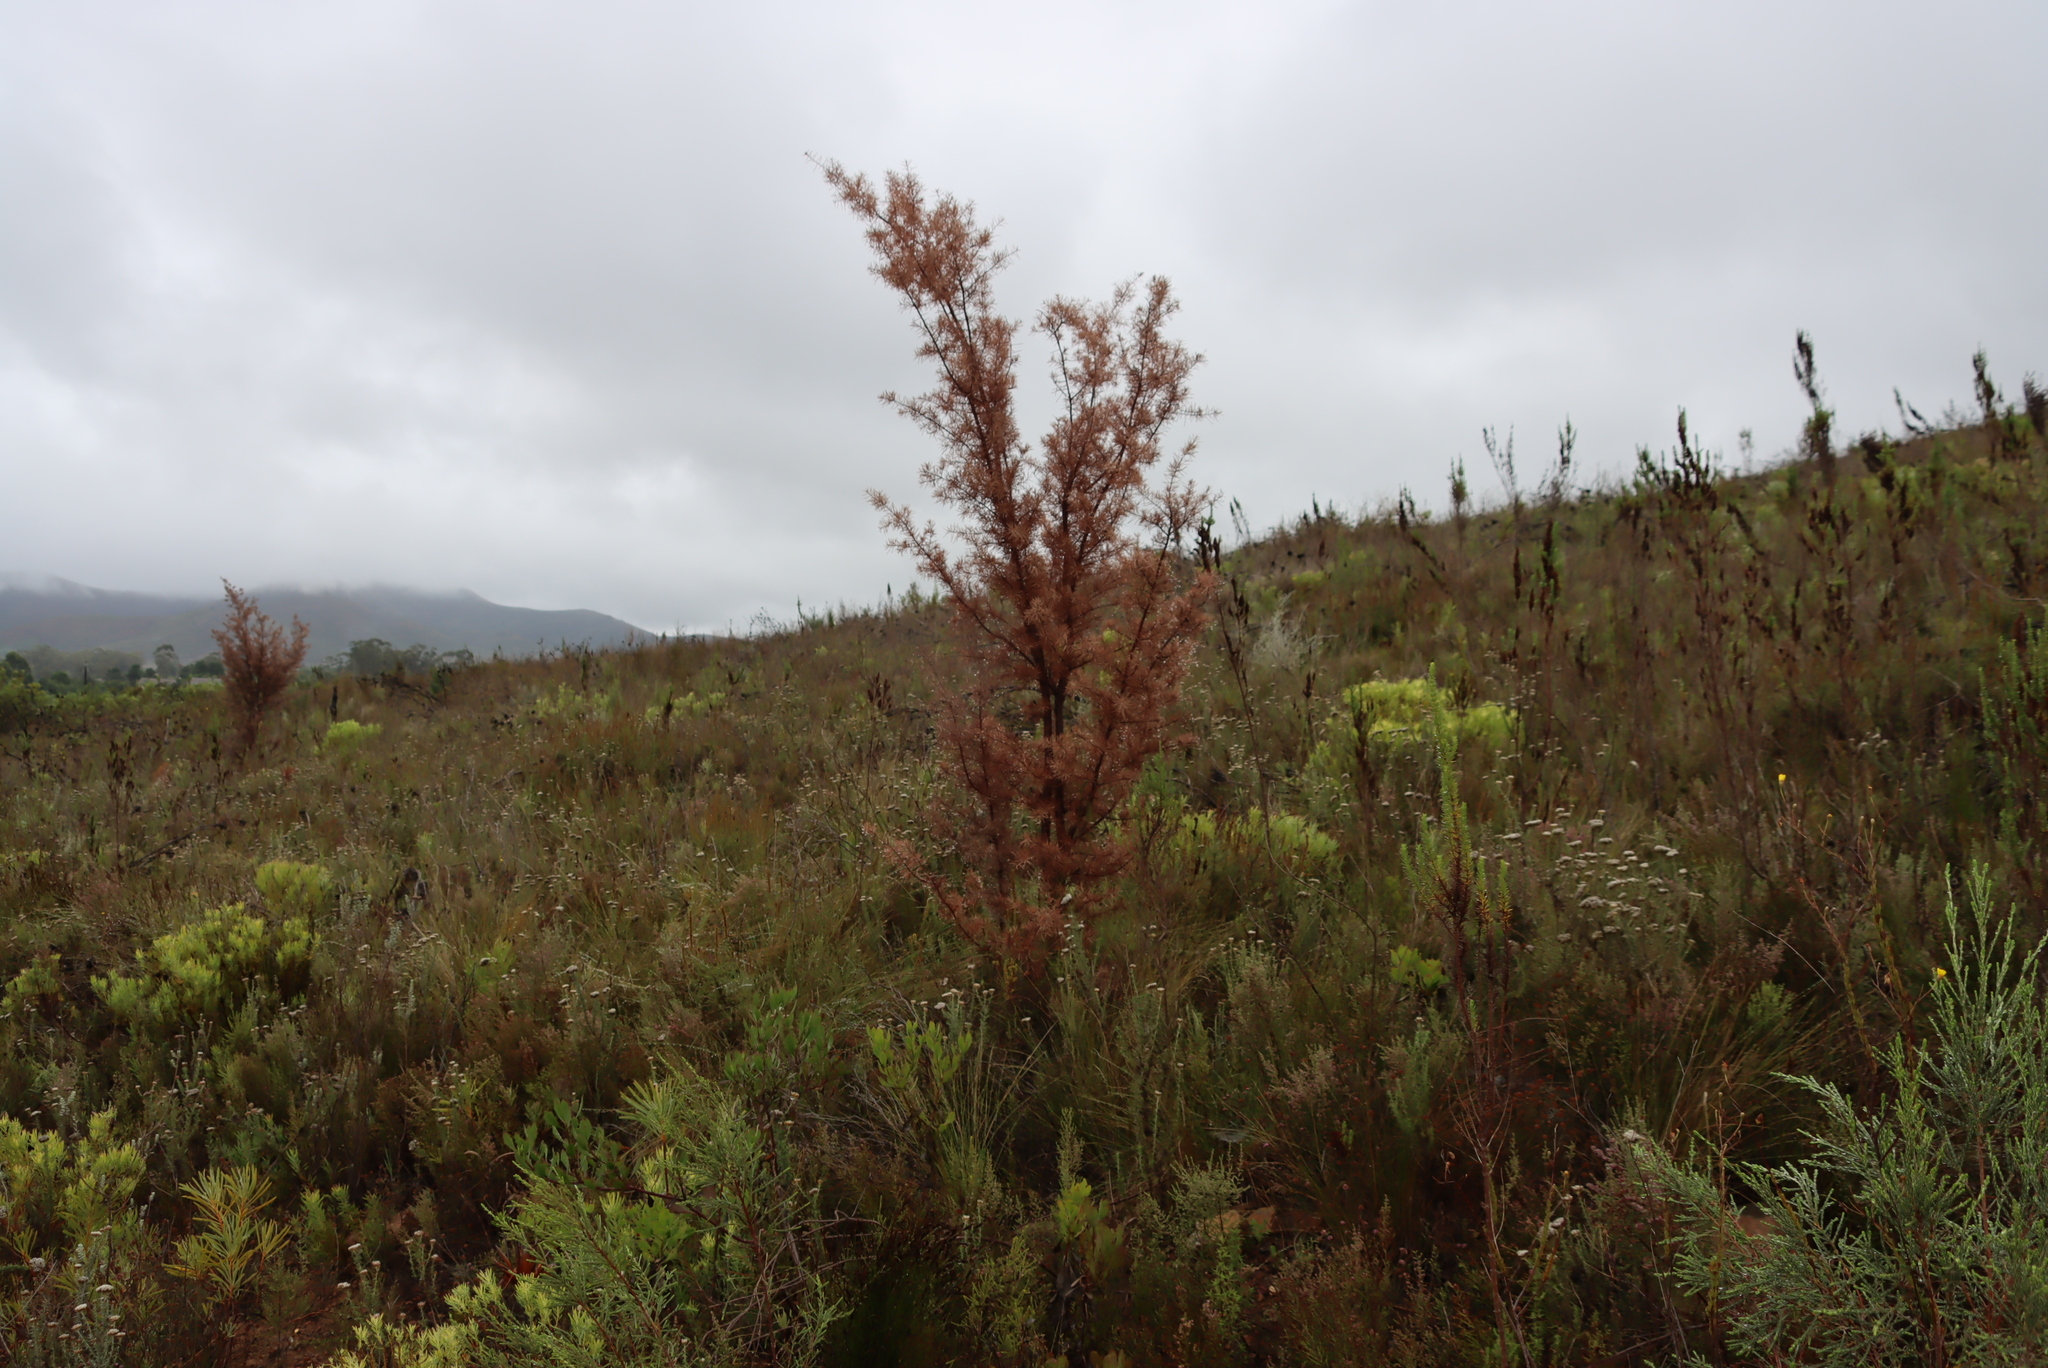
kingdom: Plantae
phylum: Tracheophyta
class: Magnoliopsida
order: Proteales
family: Proteaceae
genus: Hakea
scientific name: Hakea sericea
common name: Needle bush
